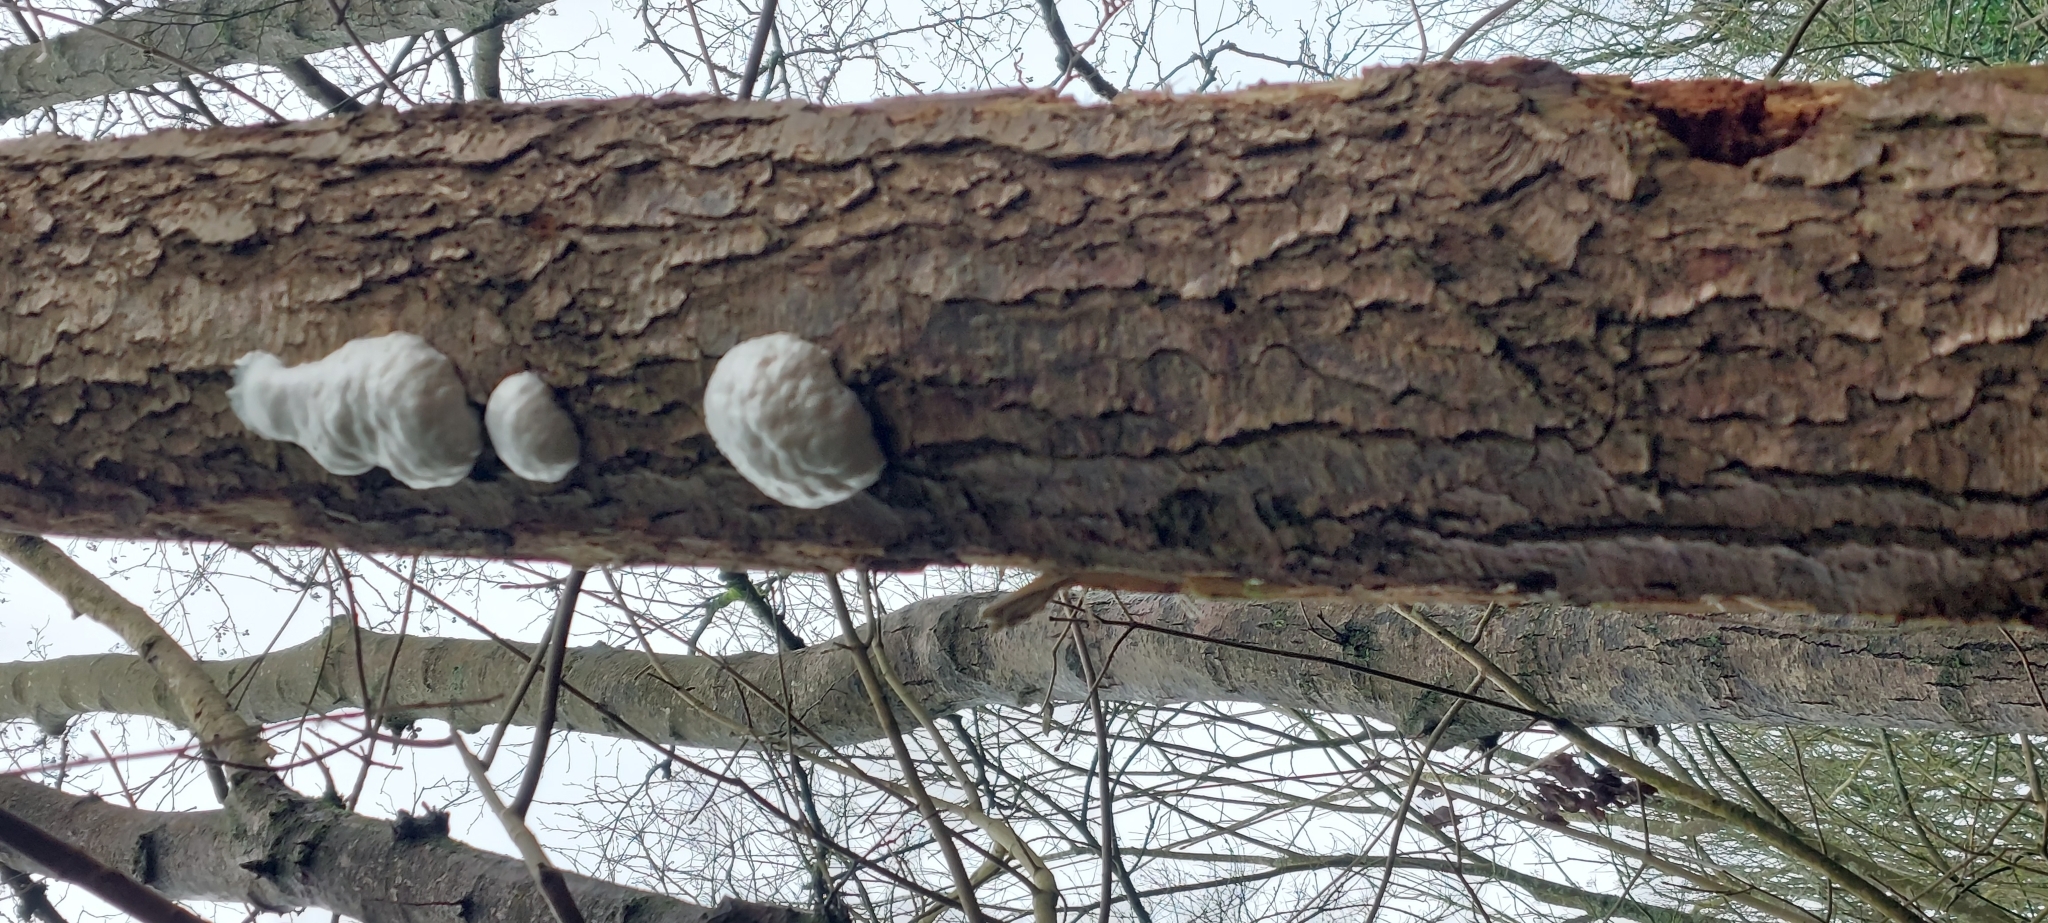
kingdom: Protozoa
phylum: Mycetozoa
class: Myxomycetes
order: Cribrariales
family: Tubiferaceae
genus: Reticularia
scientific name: Reticularia lycoperdon
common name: False puffball
